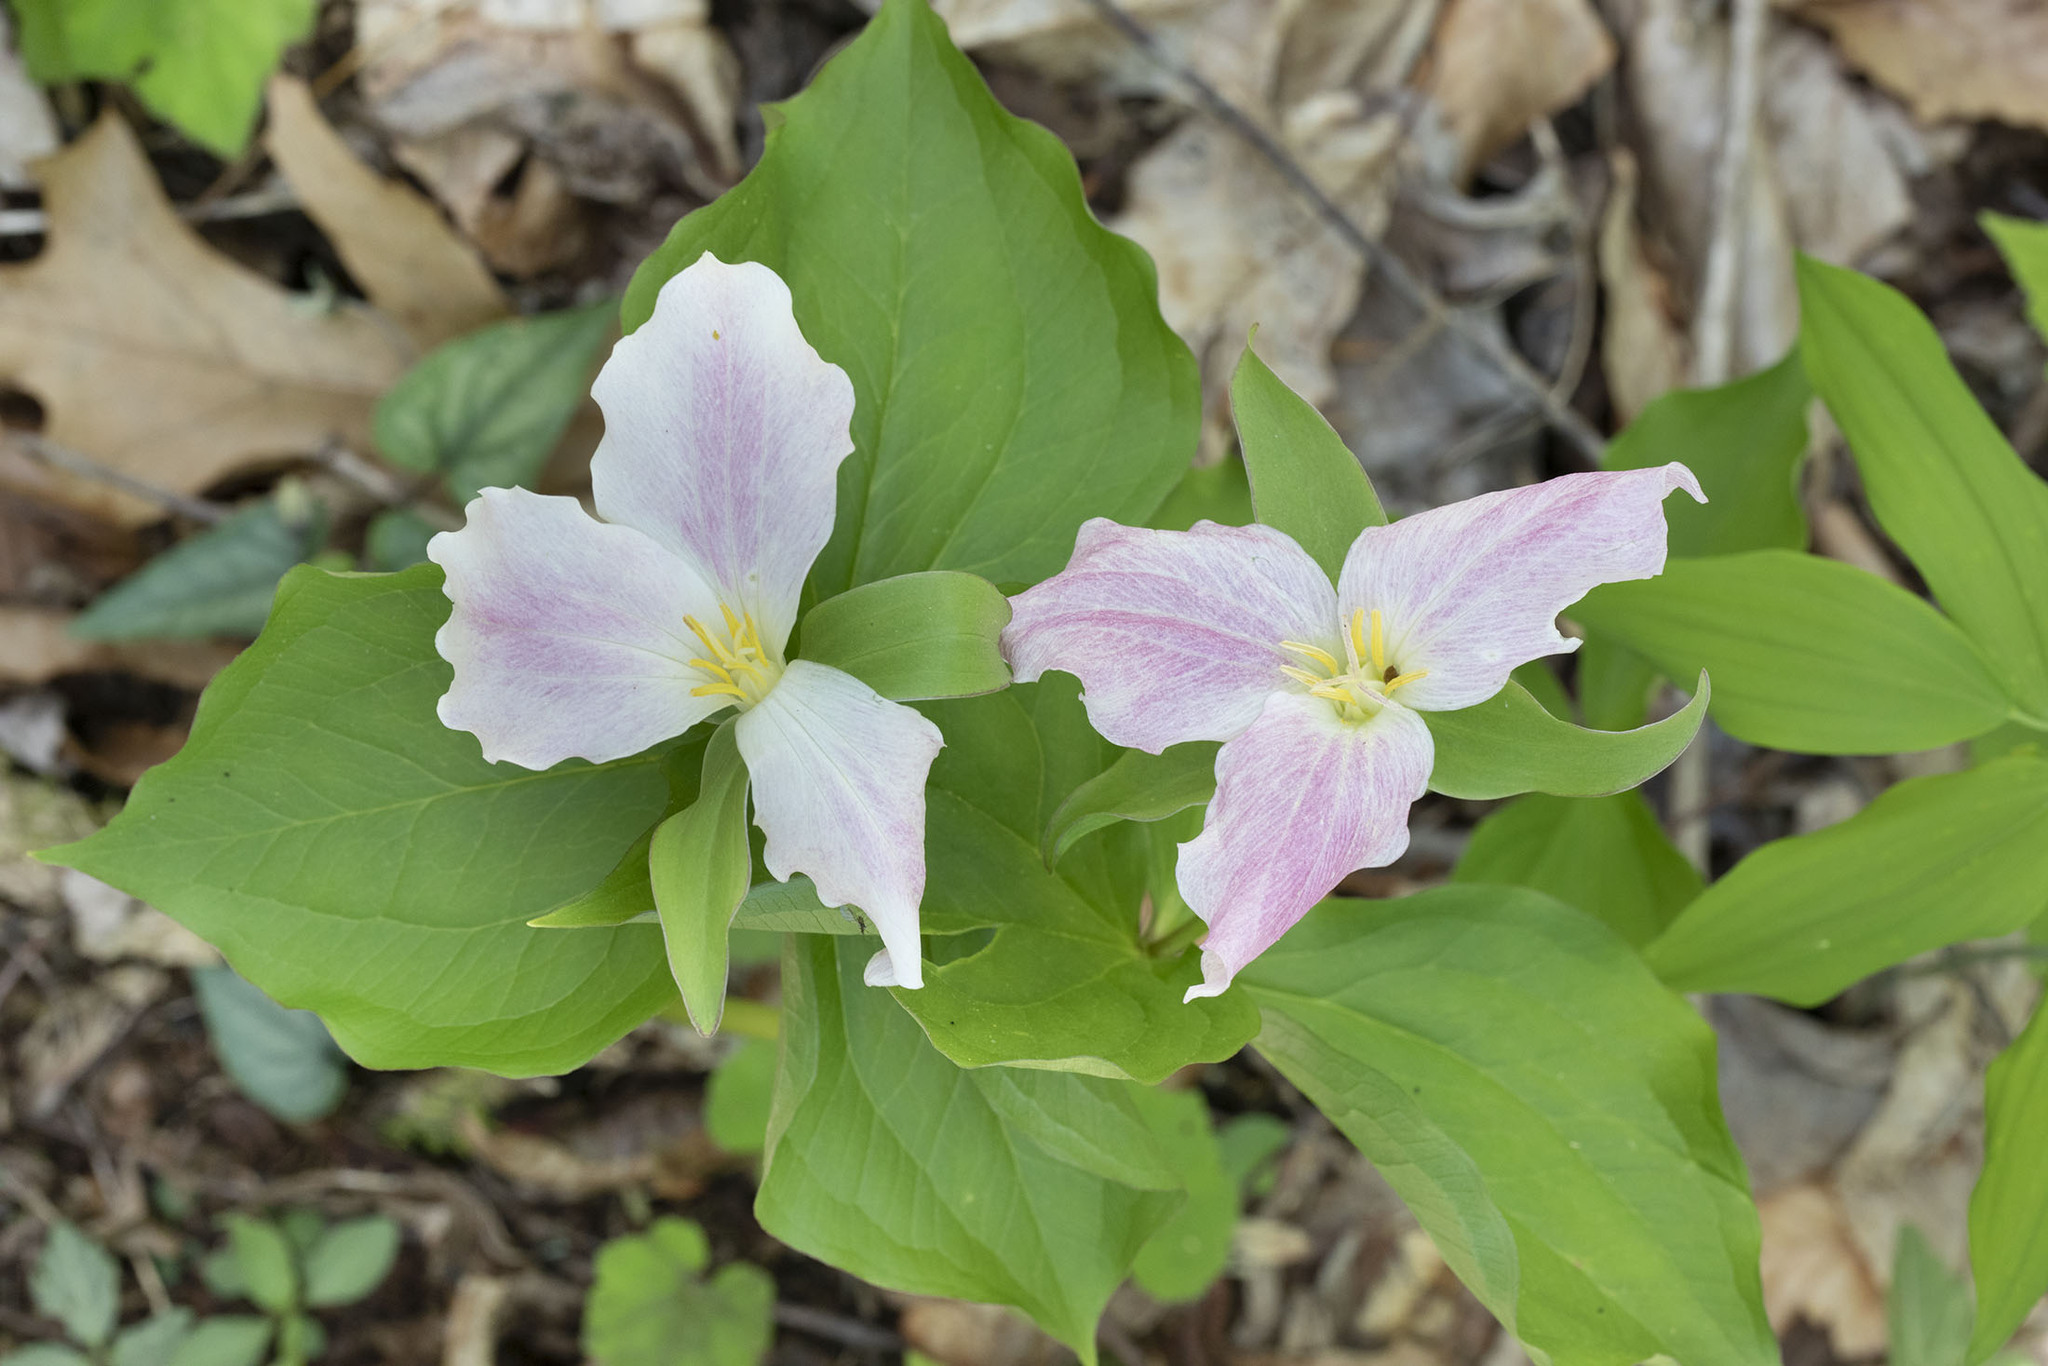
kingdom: Plantae
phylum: Tracheophyta
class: Liliopsida
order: Liliales
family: Melanthiaceae
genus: Trillium
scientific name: Trillium grandiflorum
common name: Great white trillium
